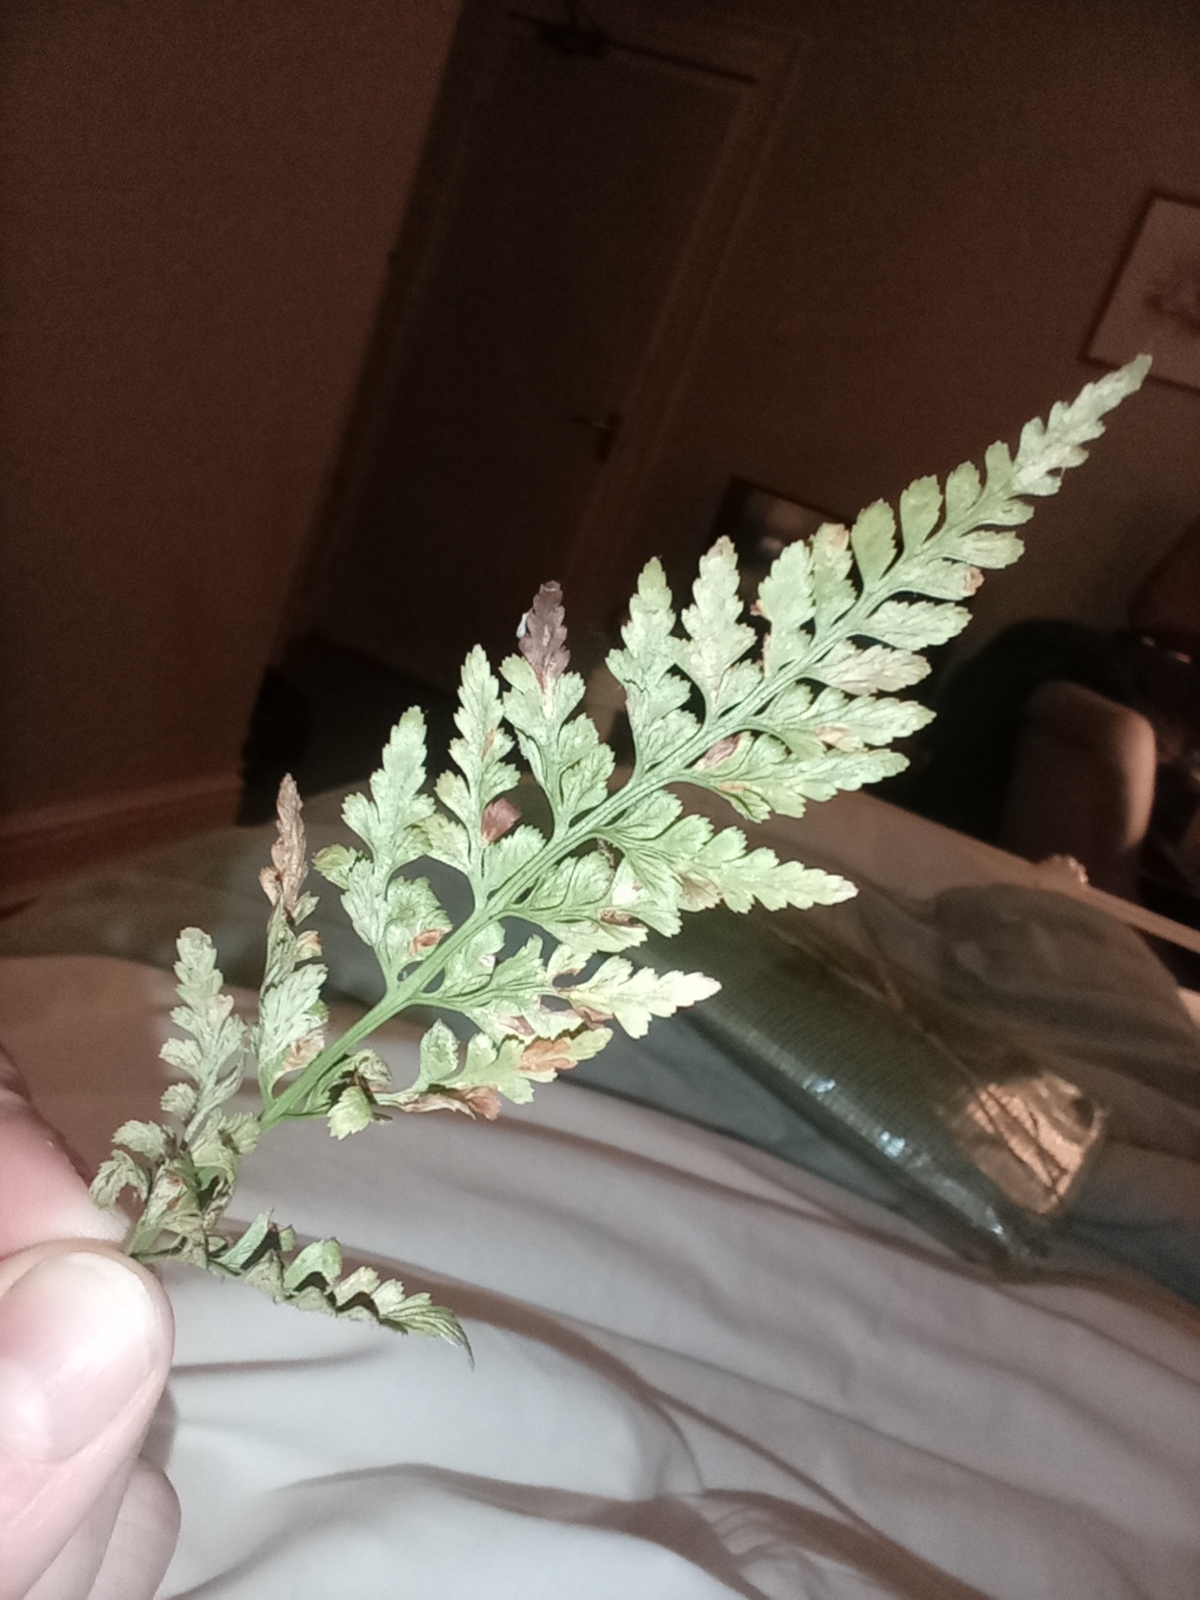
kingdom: Plantae
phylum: Tracheophyta
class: Polypodiopsida
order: Polypodiales
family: Aspleniaceae
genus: Asplenium
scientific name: Asplenium adiantum-nigrum
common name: Black spleenwort
